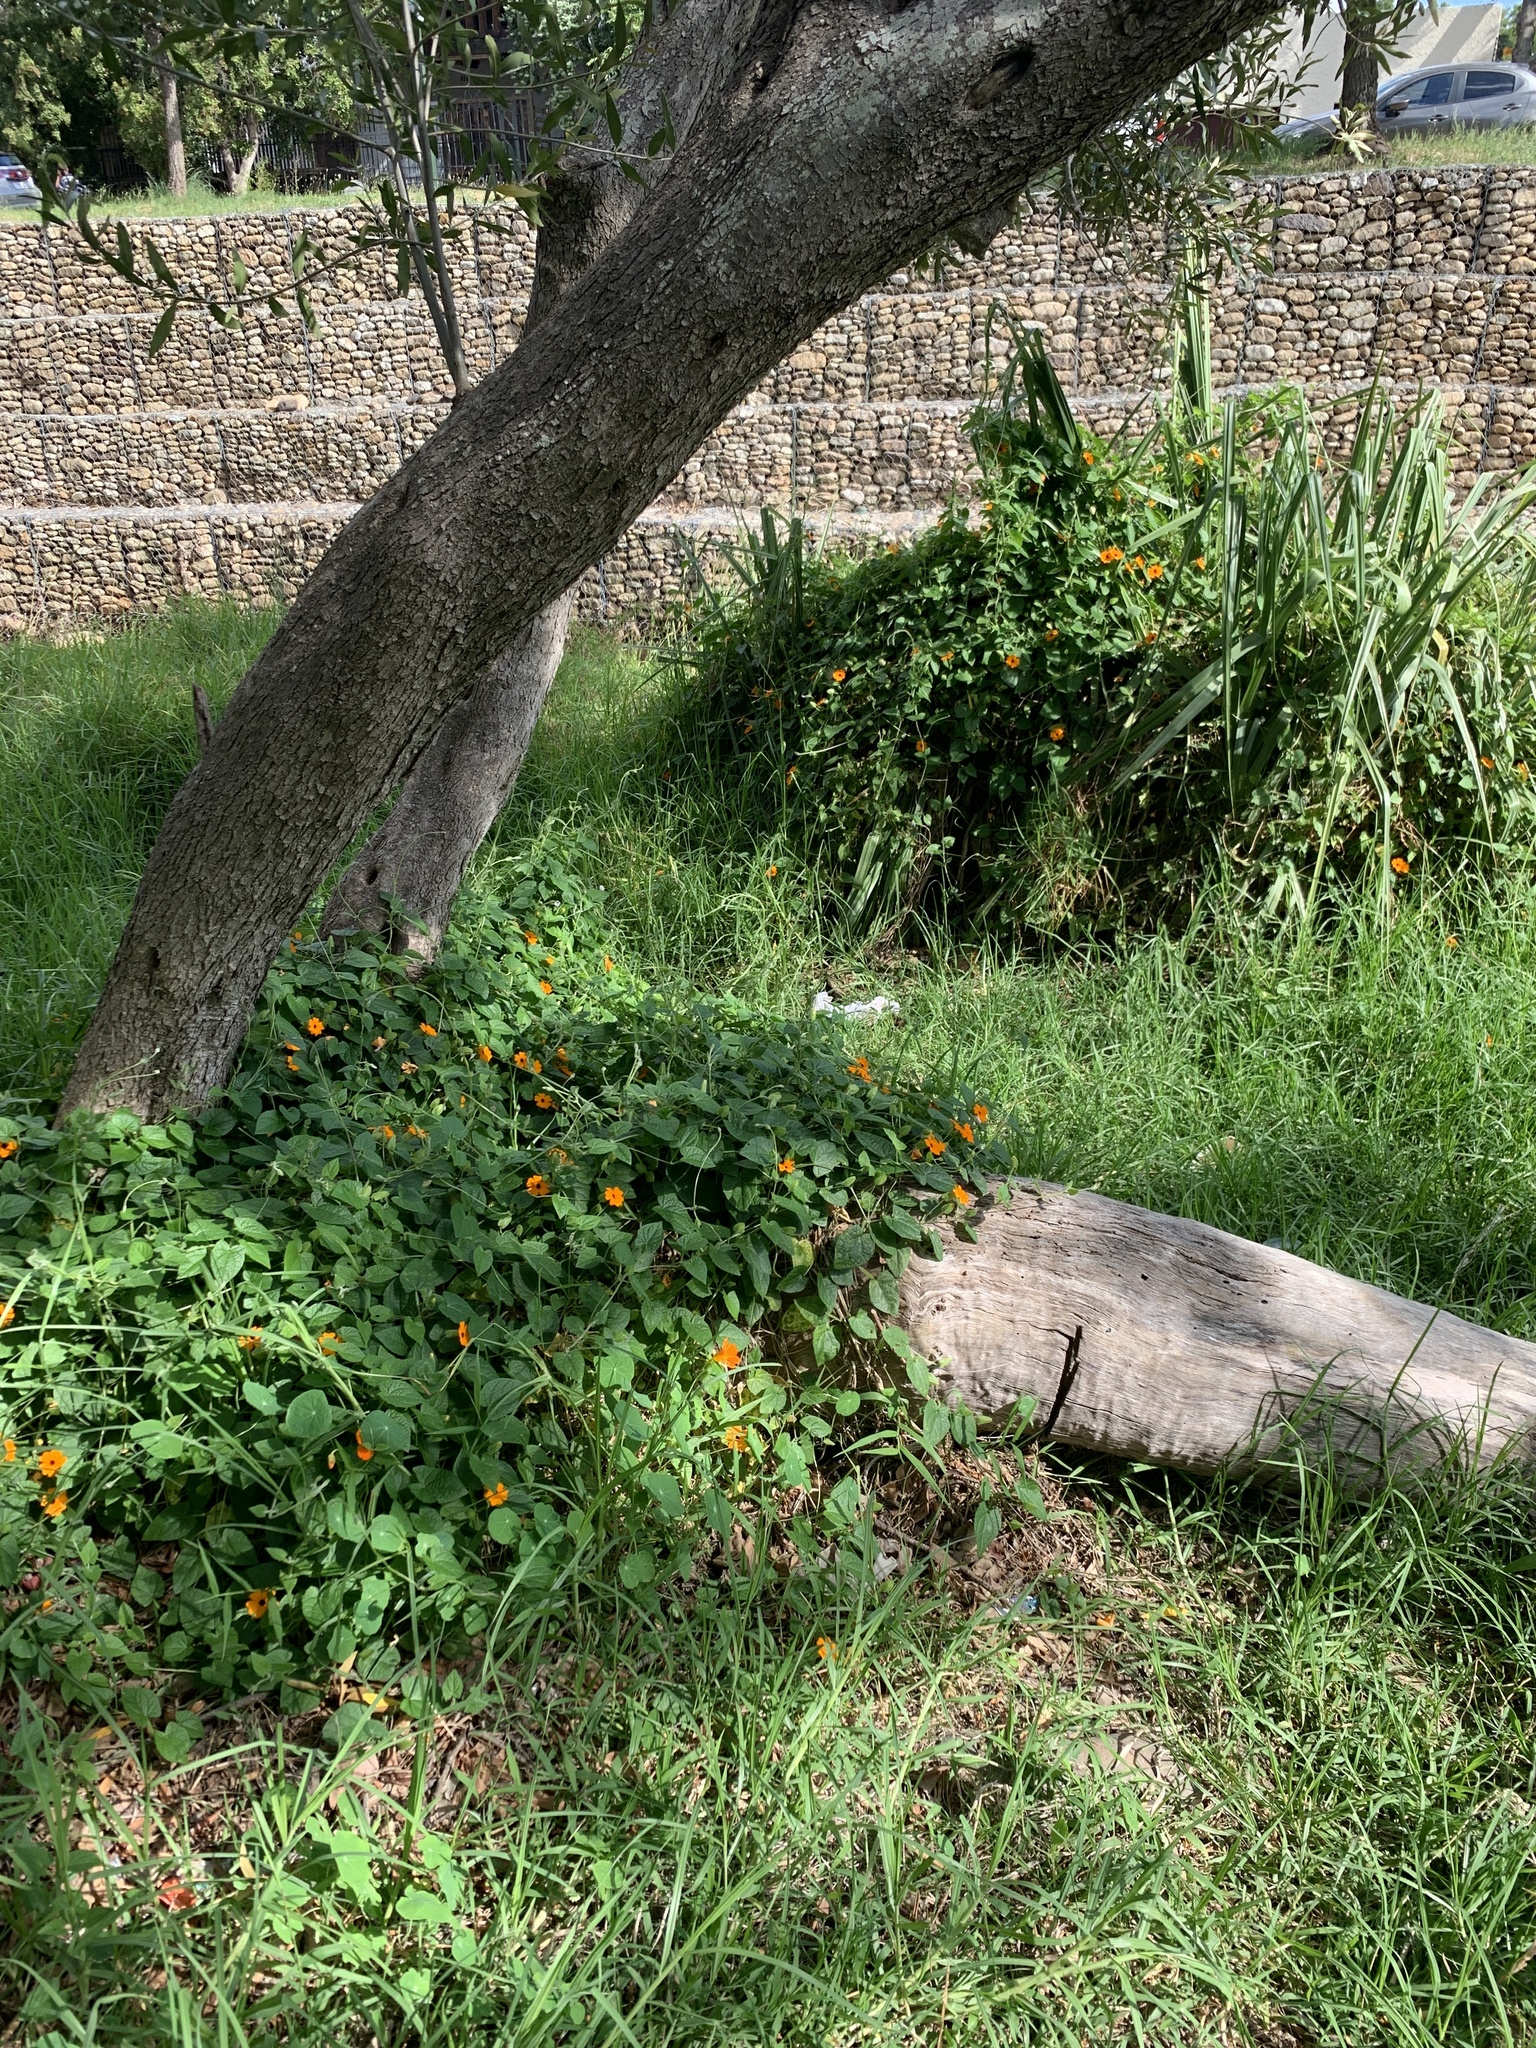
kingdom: Plantae
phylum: Tracheophyta
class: Magnoliopsida
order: Lamiales
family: Acanthaceae
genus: Thunbergia
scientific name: Thunbergia alata
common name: Blackeyed susan vine
